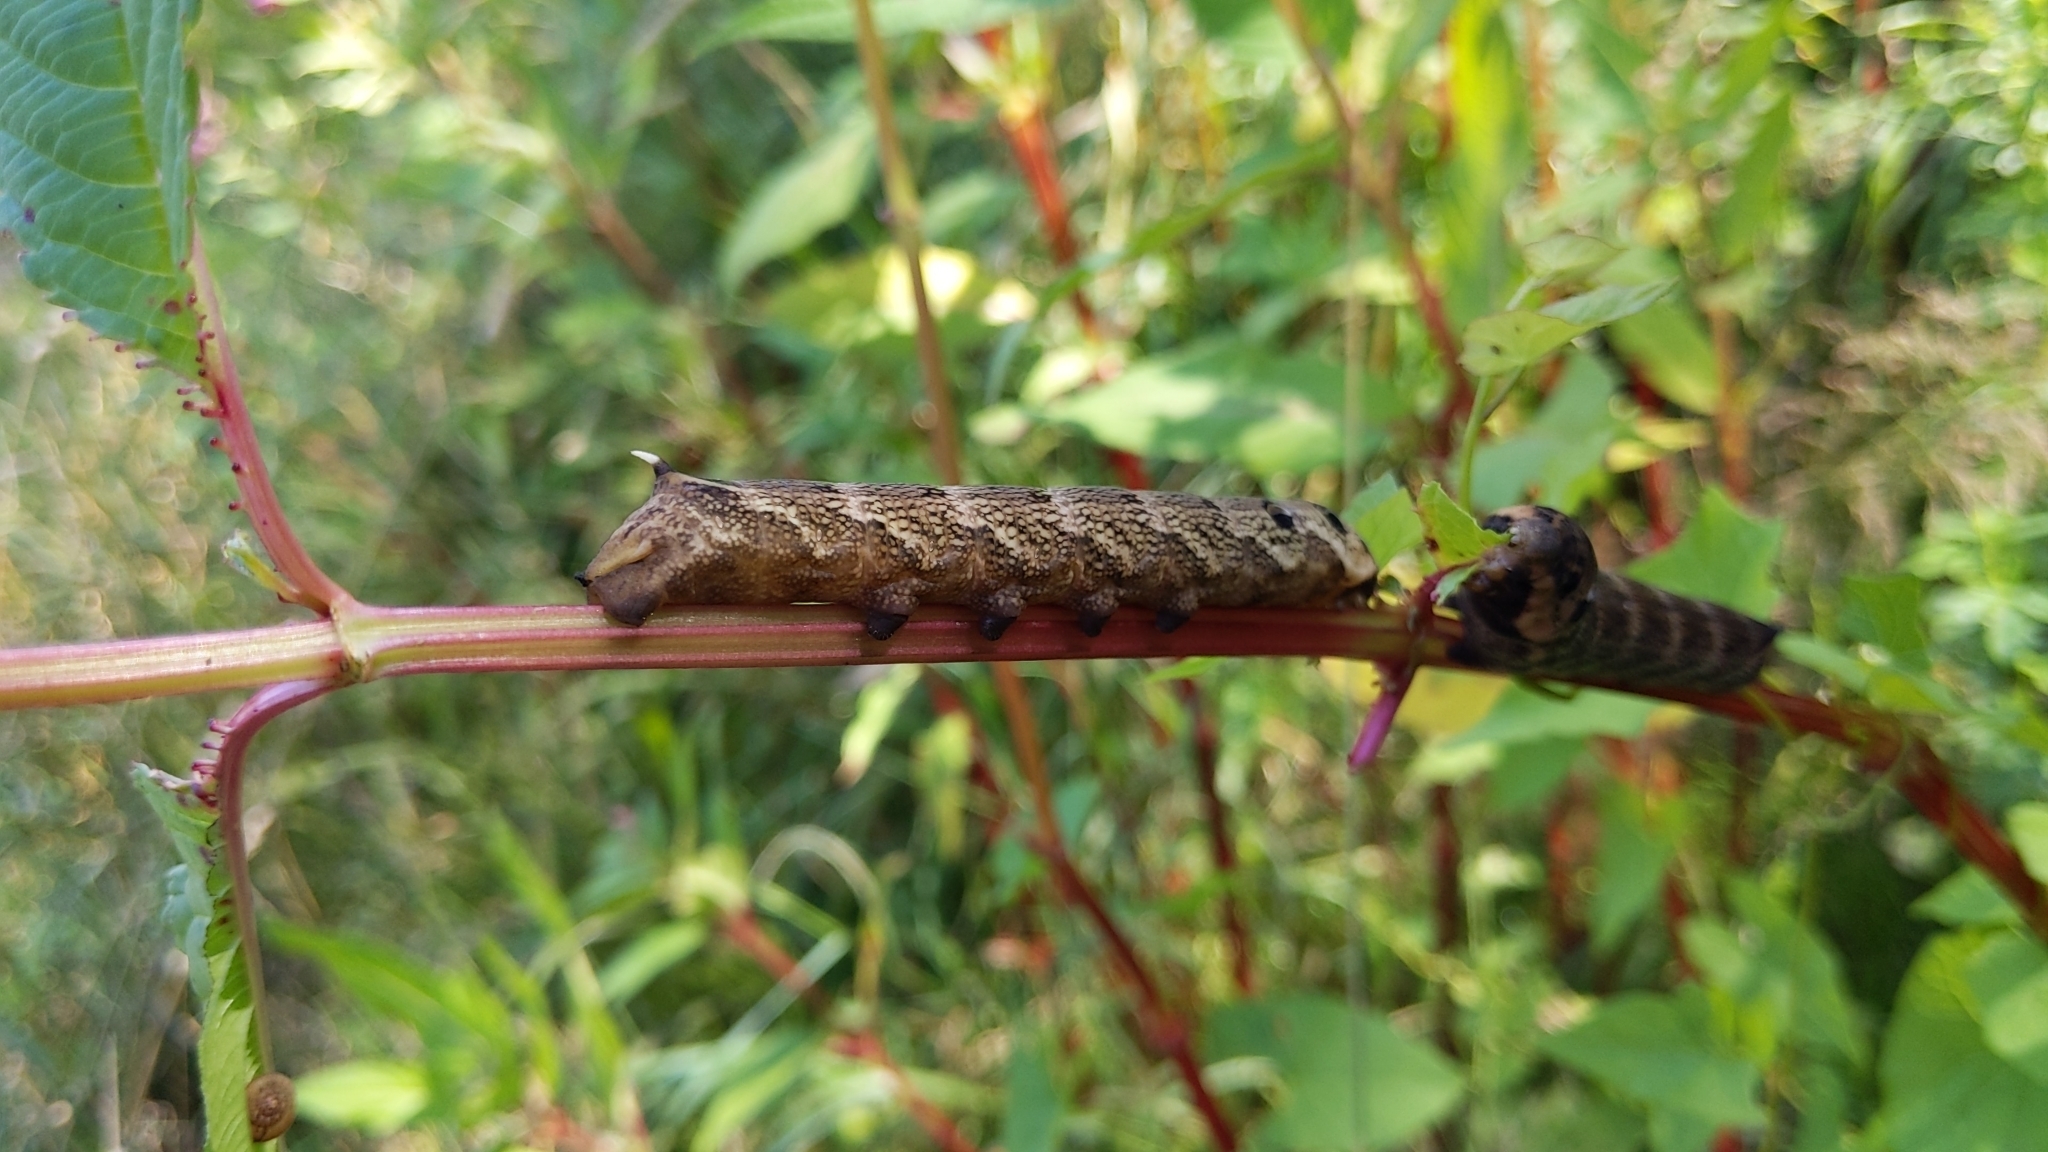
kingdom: Animalia
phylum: Arthropoda
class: Insecta
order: Lepidoptera
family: Sphingidae
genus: Deilephila
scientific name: Deilephila elpenor
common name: Elephant hawk-moth
